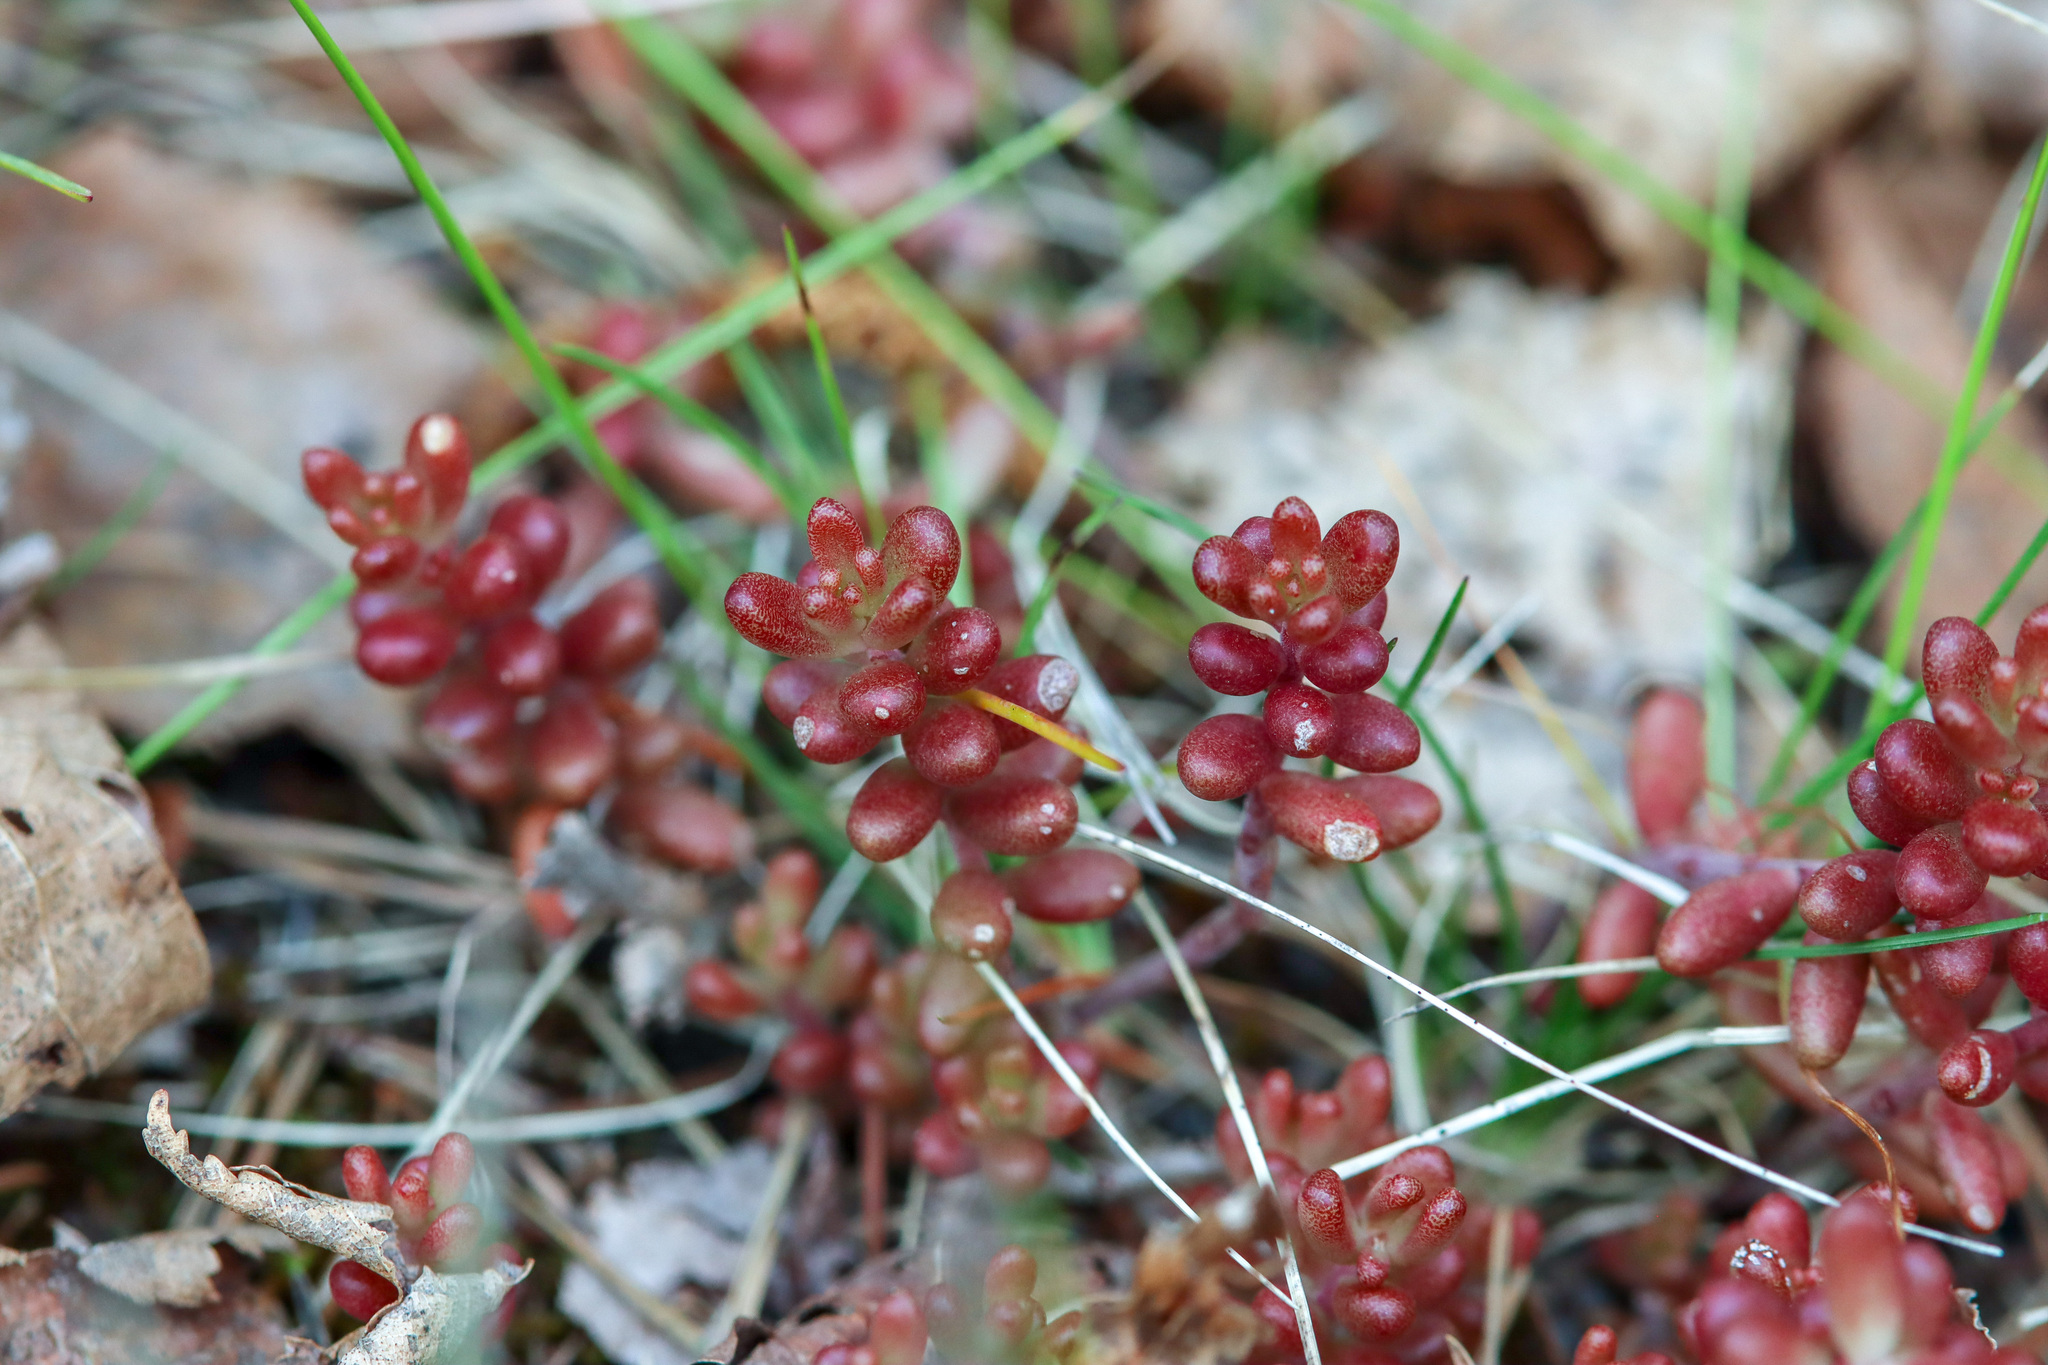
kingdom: Plantae
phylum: Tracheophyta
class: Magnoliopsida
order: Saxifragales
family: Crassulaceae
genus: Sedum
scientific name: Sedum album
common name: White stonecrop
